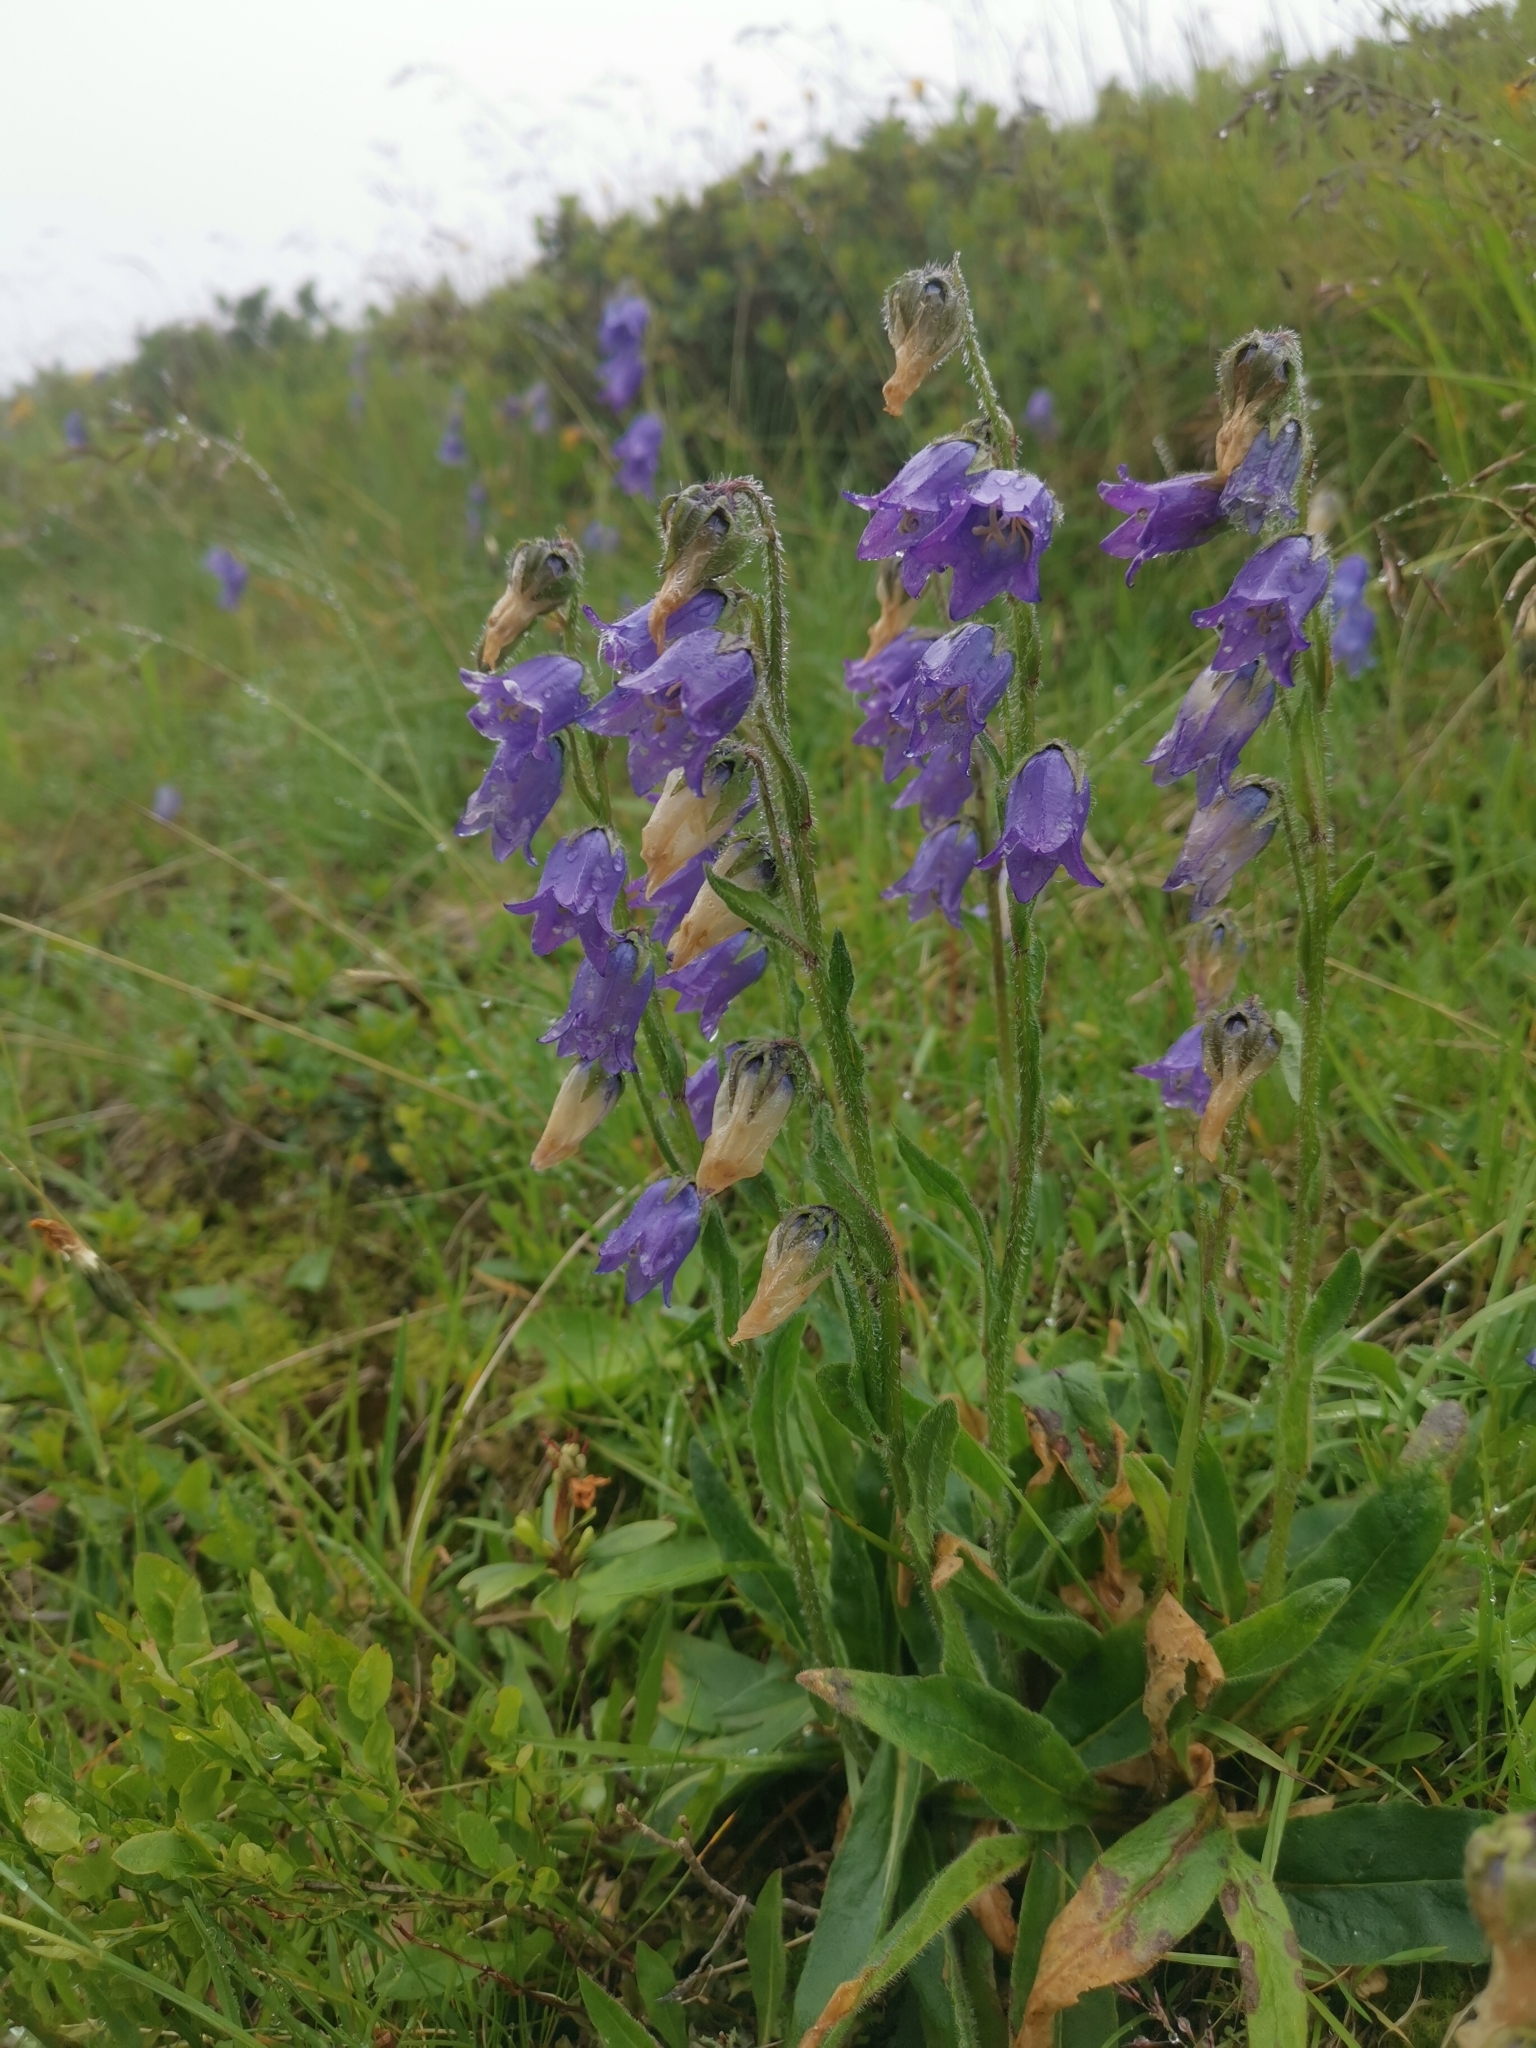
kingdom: Plantae
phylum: Tracheophyta
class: Magnoliopsida
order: Asterales
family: Campanulaceae
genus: Campanula
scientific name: Campanula barbata
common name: Bearded bellflower
